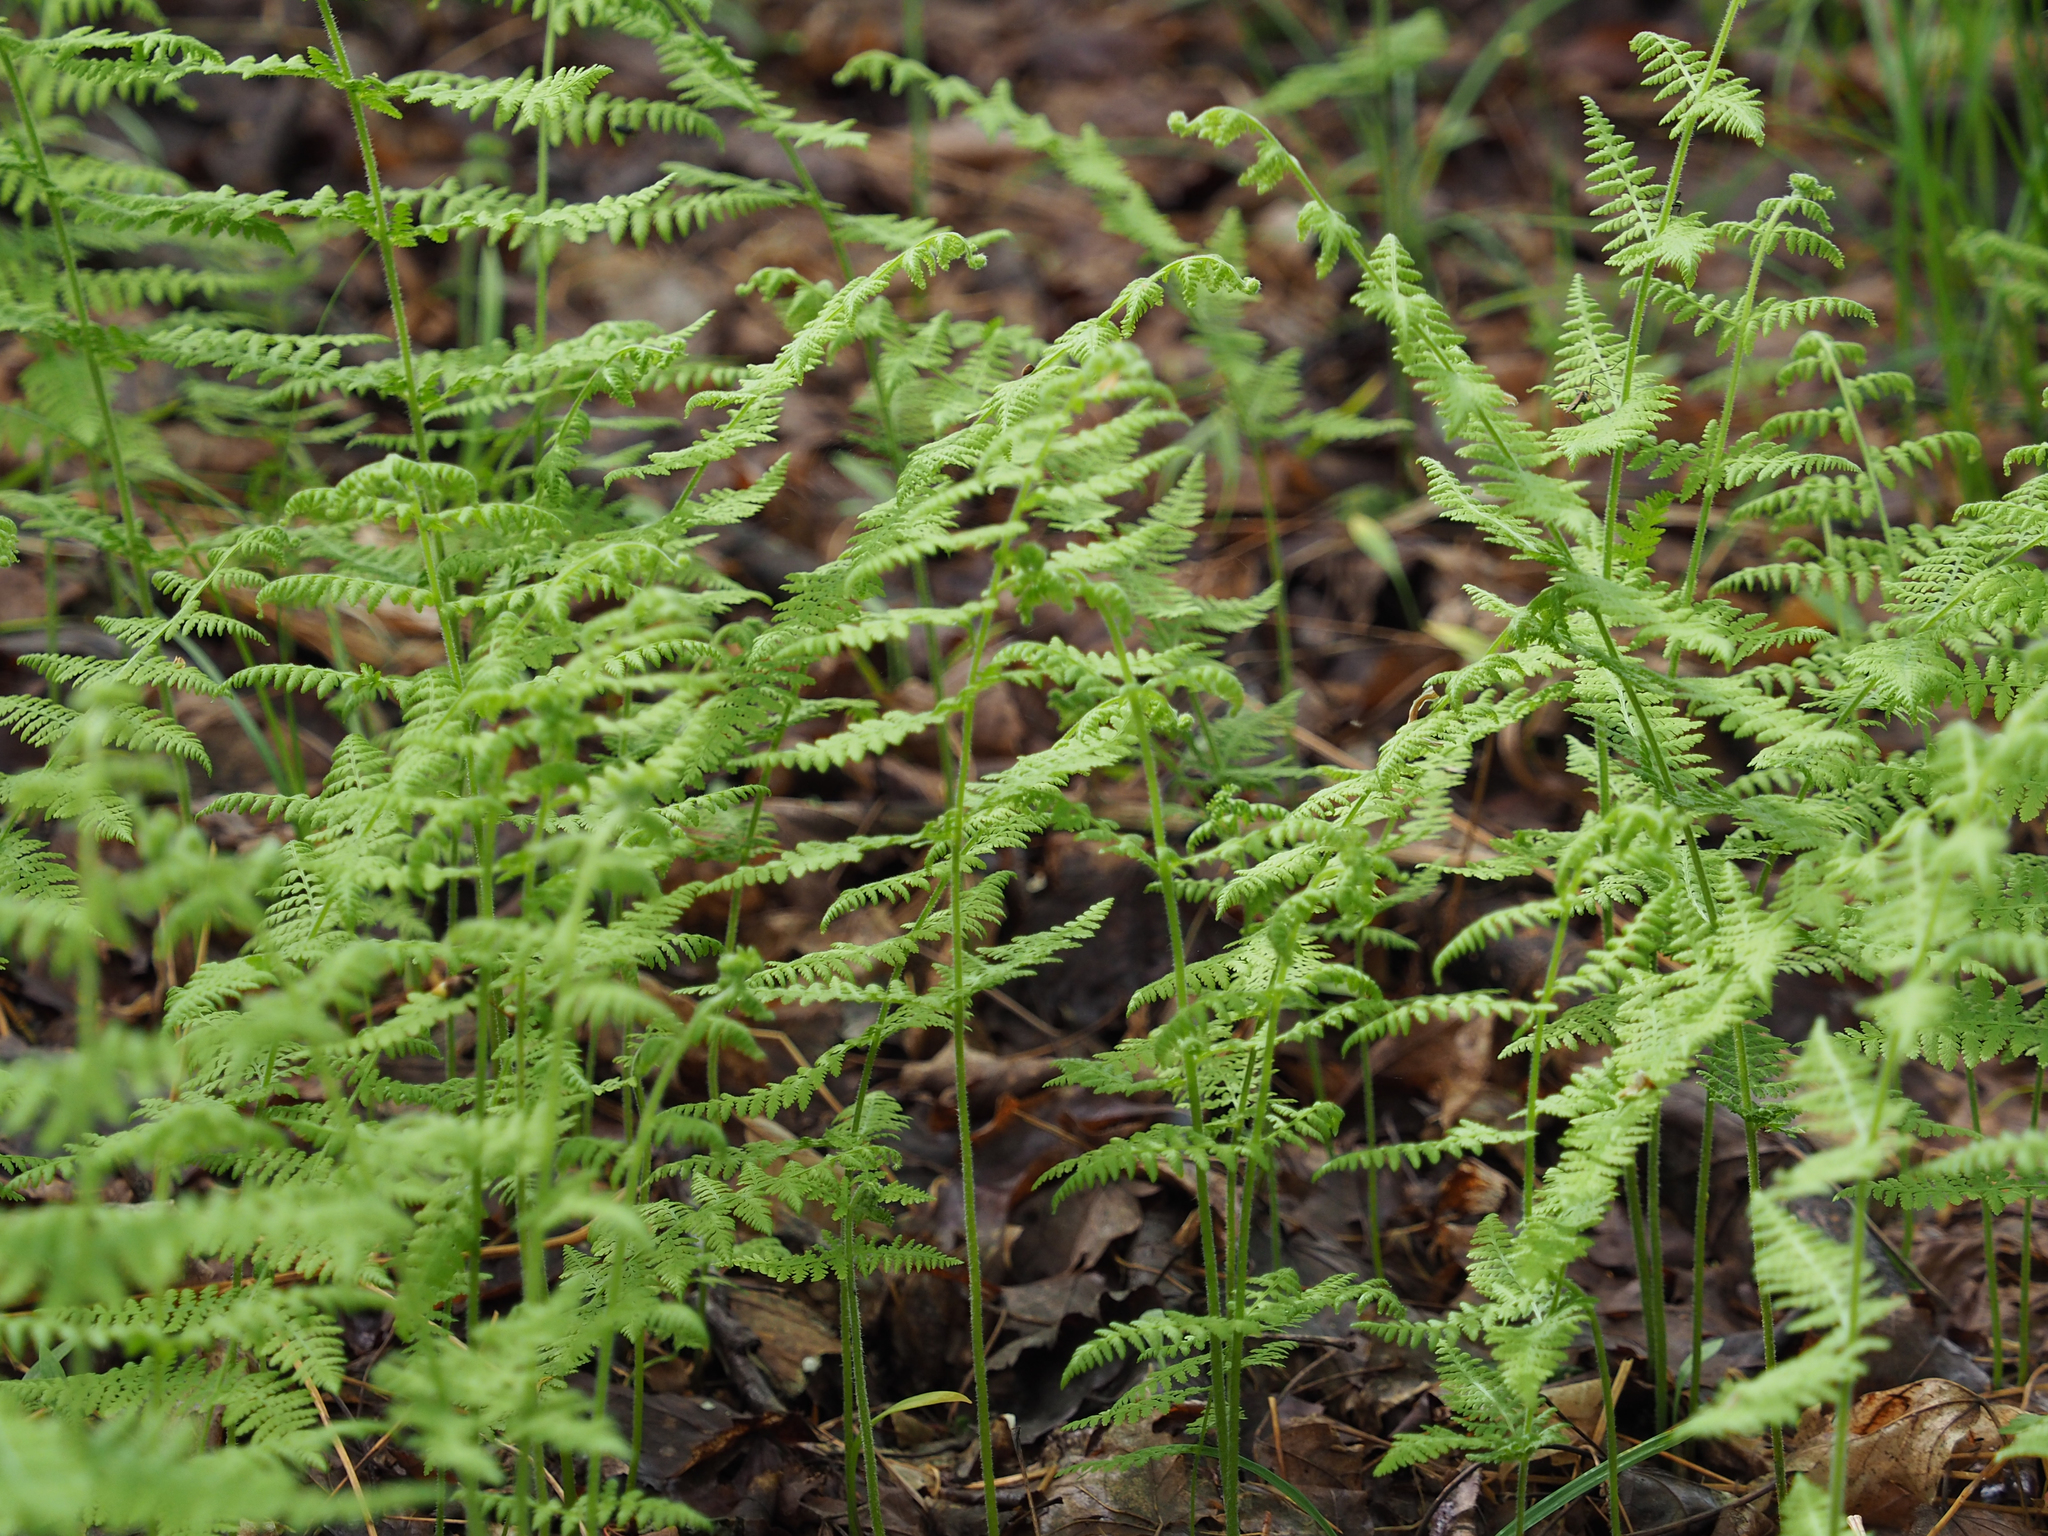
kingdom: Plantae
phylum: Tracheophyta
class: Polypodiopsida
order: Polypodiales
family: Dennstaedtiaceae
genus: Sitobolium
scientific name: Sitobolium punctilobum
